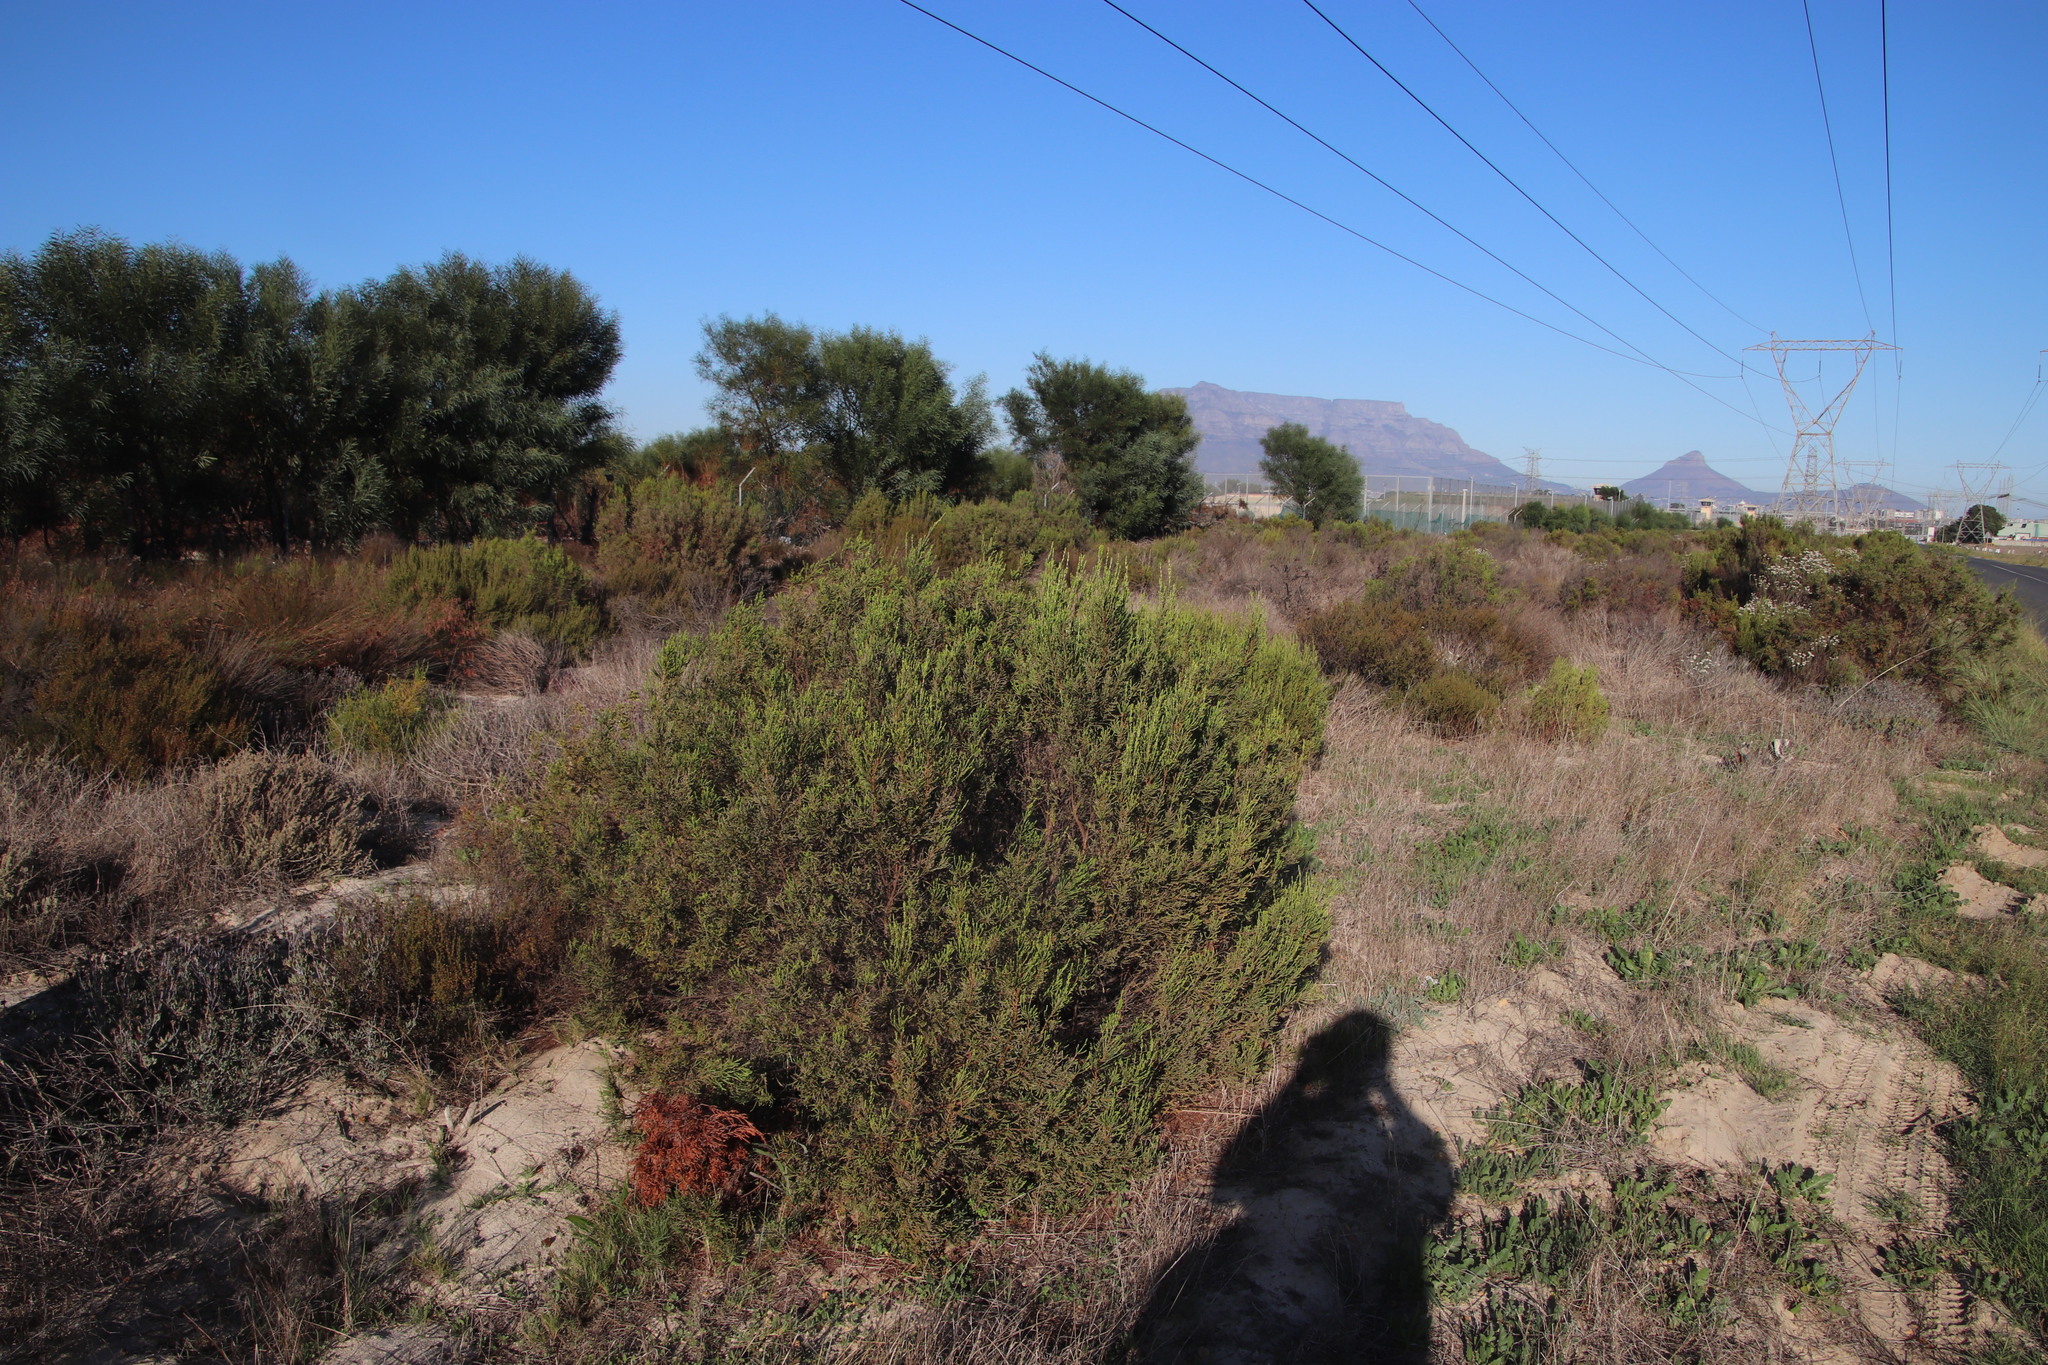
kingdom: Plantae
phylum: Tracheophyta
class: Magnoliopsida
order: Malvales
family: Thymelaeaceae
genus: Passerina
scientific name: Passerina corymbosa
